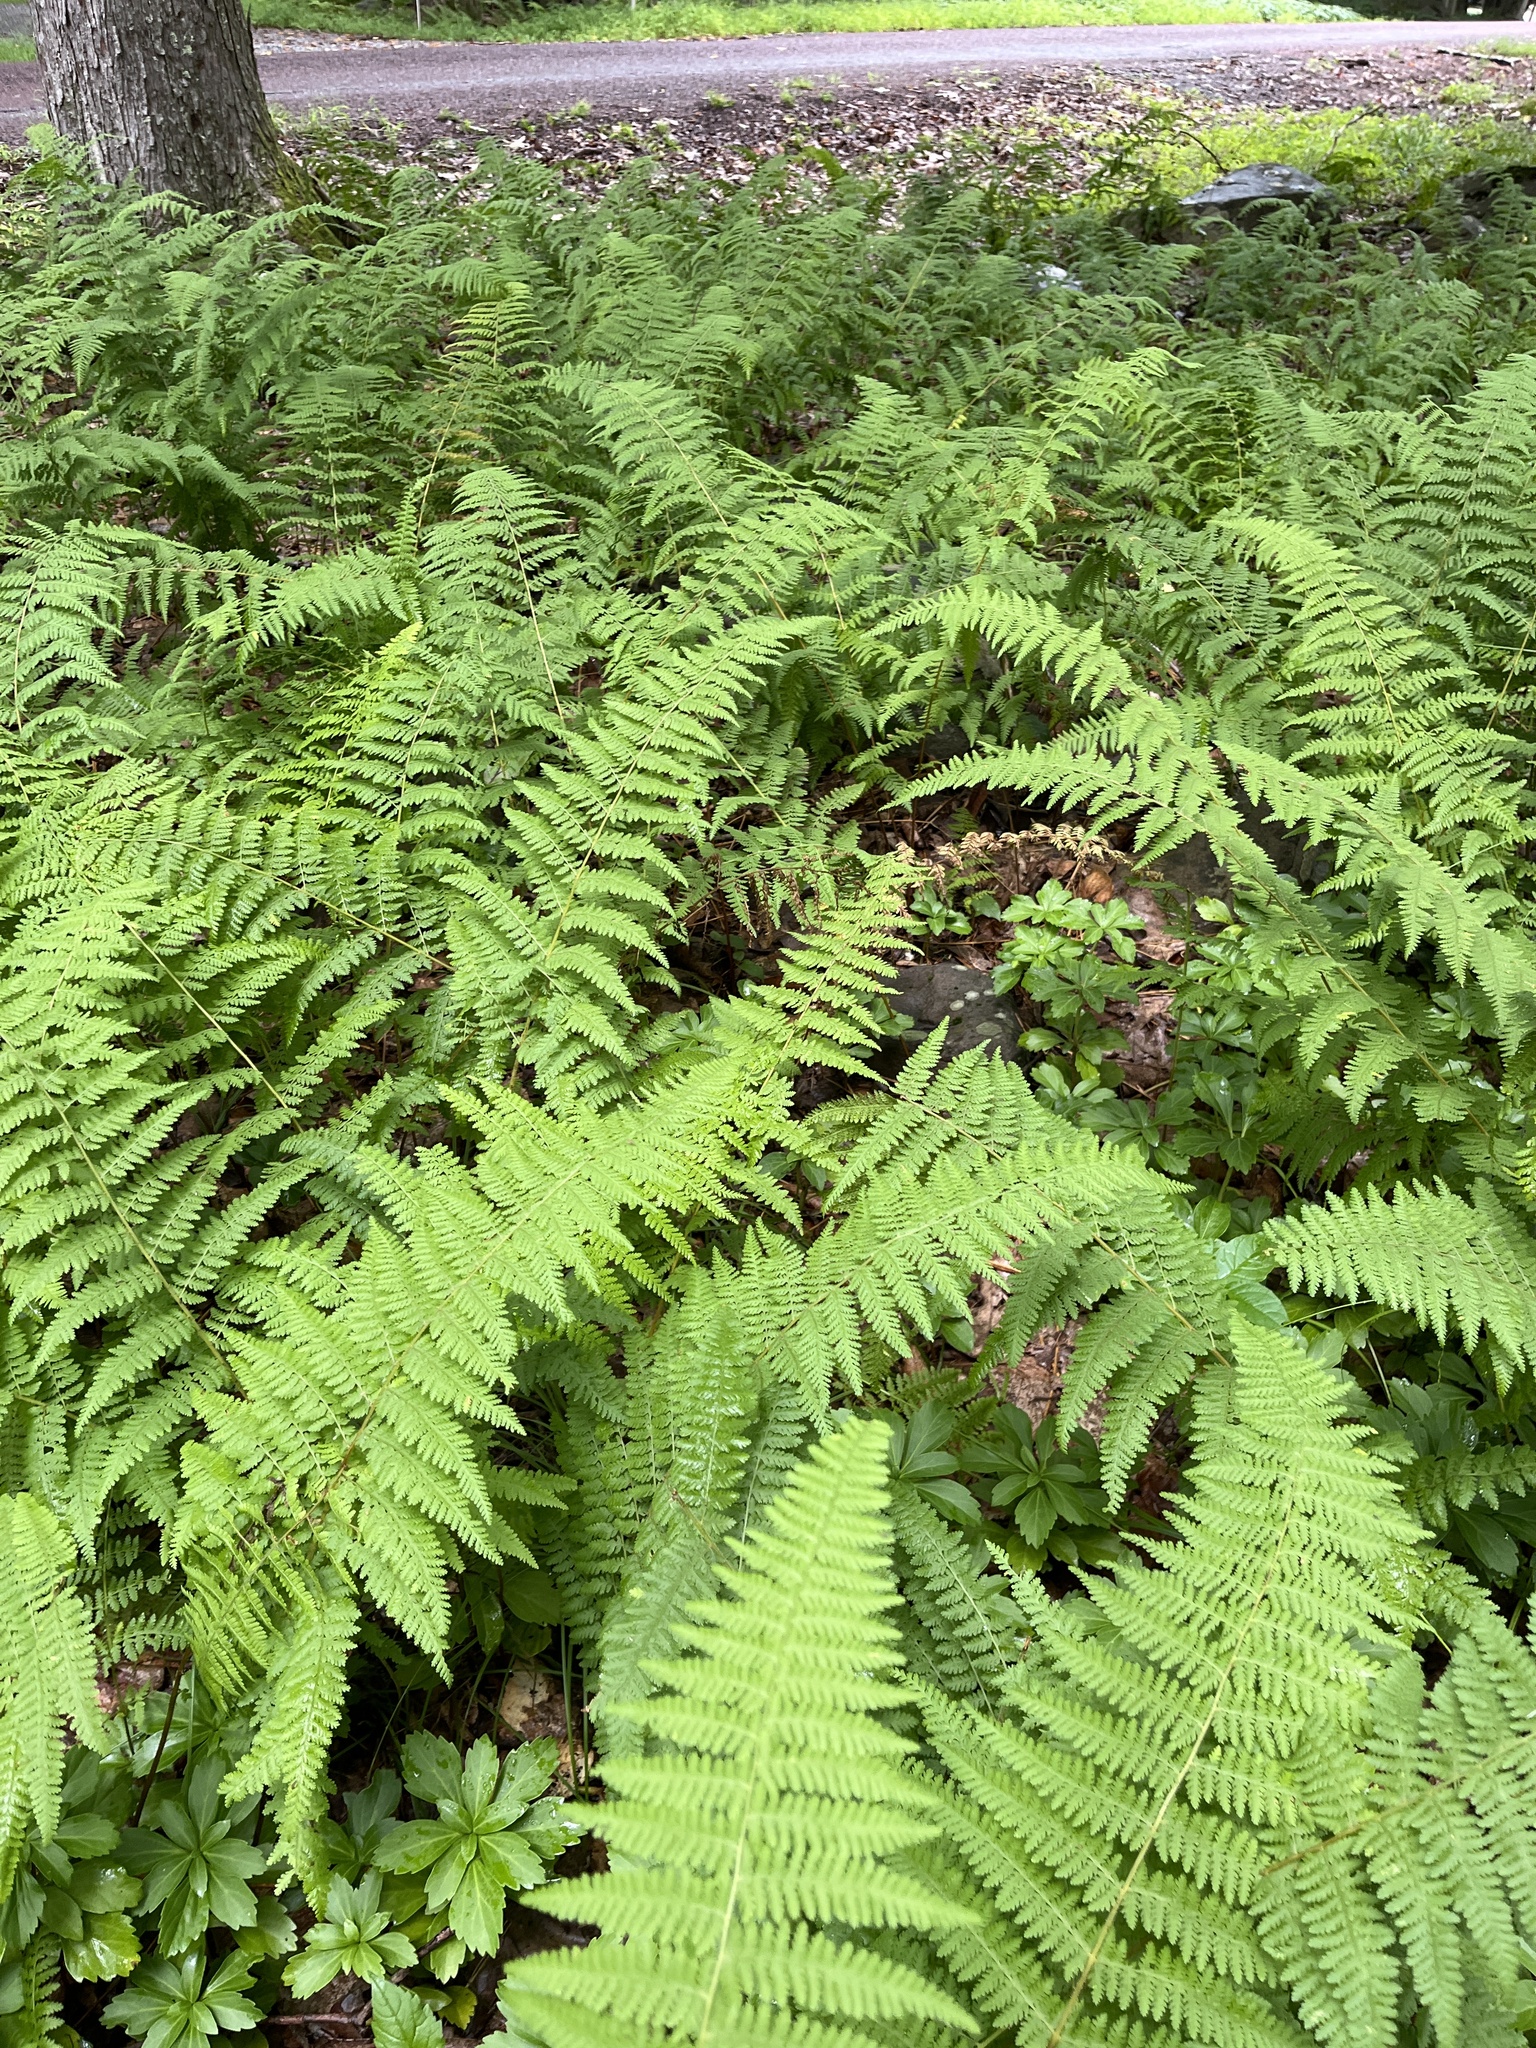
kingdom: Plantae
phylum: Tracheophyta
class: Polypodiopsida
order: Polypodiales
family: Dennstaedtiaceae
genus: Sitobolium
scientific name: Sitobolium punctilobum
